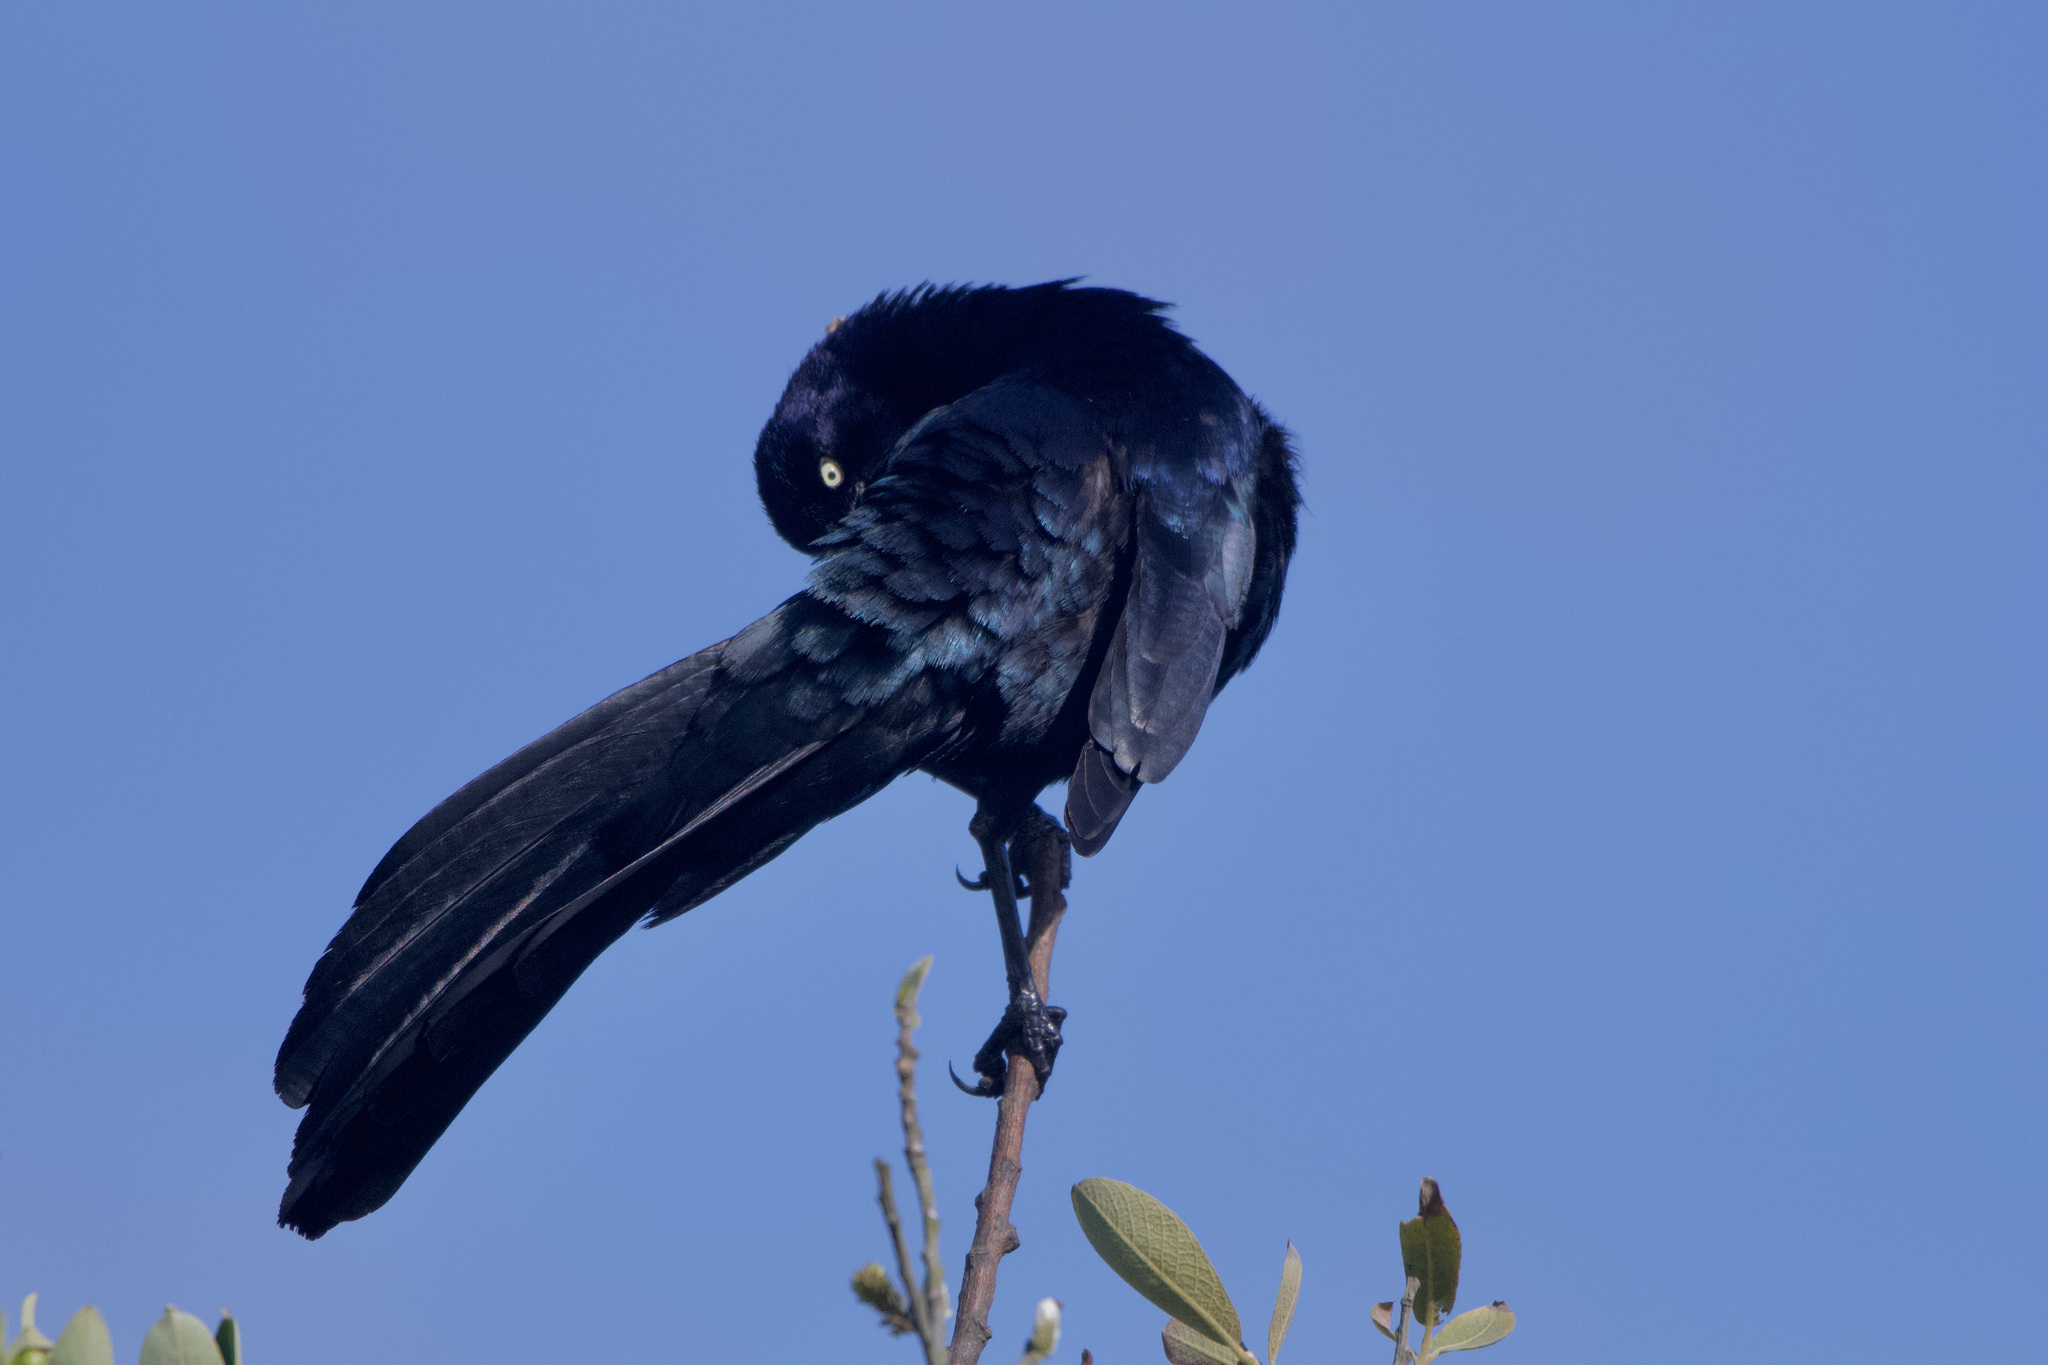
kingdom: Animalia
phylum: Chordata
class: Aves
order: Passeriformes
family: Icteridae
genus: Quiscalus
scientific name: Quiscalus mexicanus
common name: Great-tailed grackle
